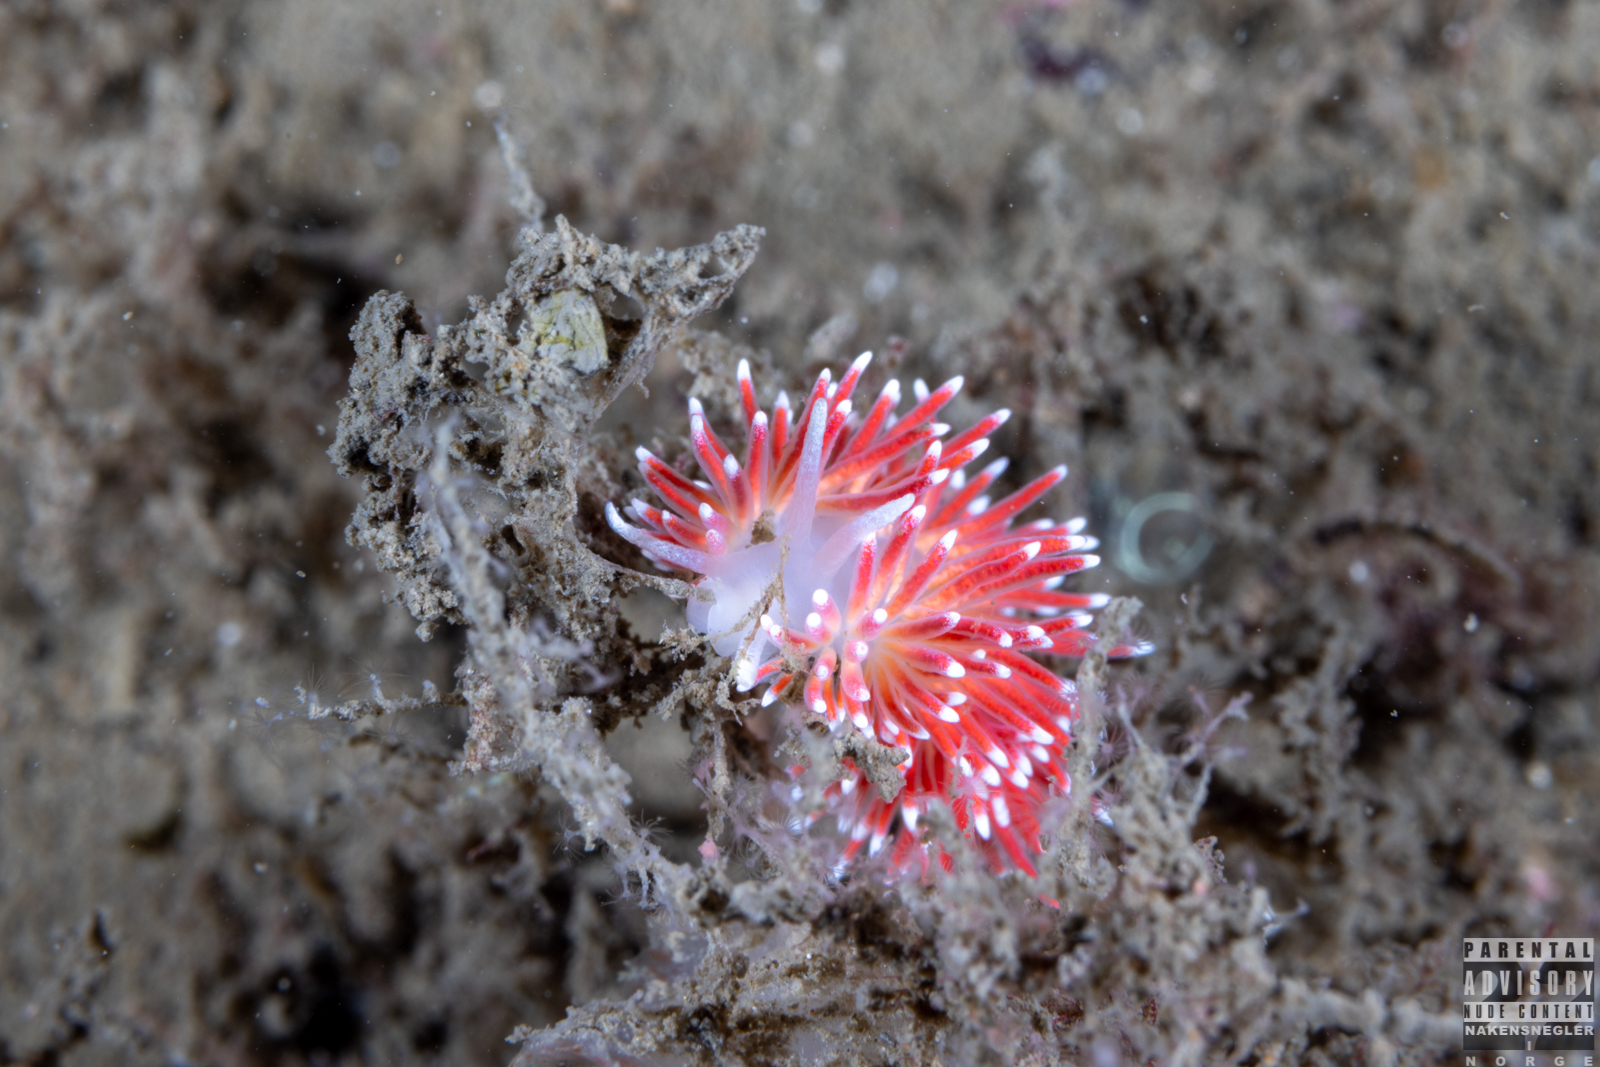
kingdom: Animalia
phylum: Mollusca
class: Gastropoda
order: Nudibranchia
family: Flabellinidae
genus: Carronella
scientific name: Carronella pellucida
